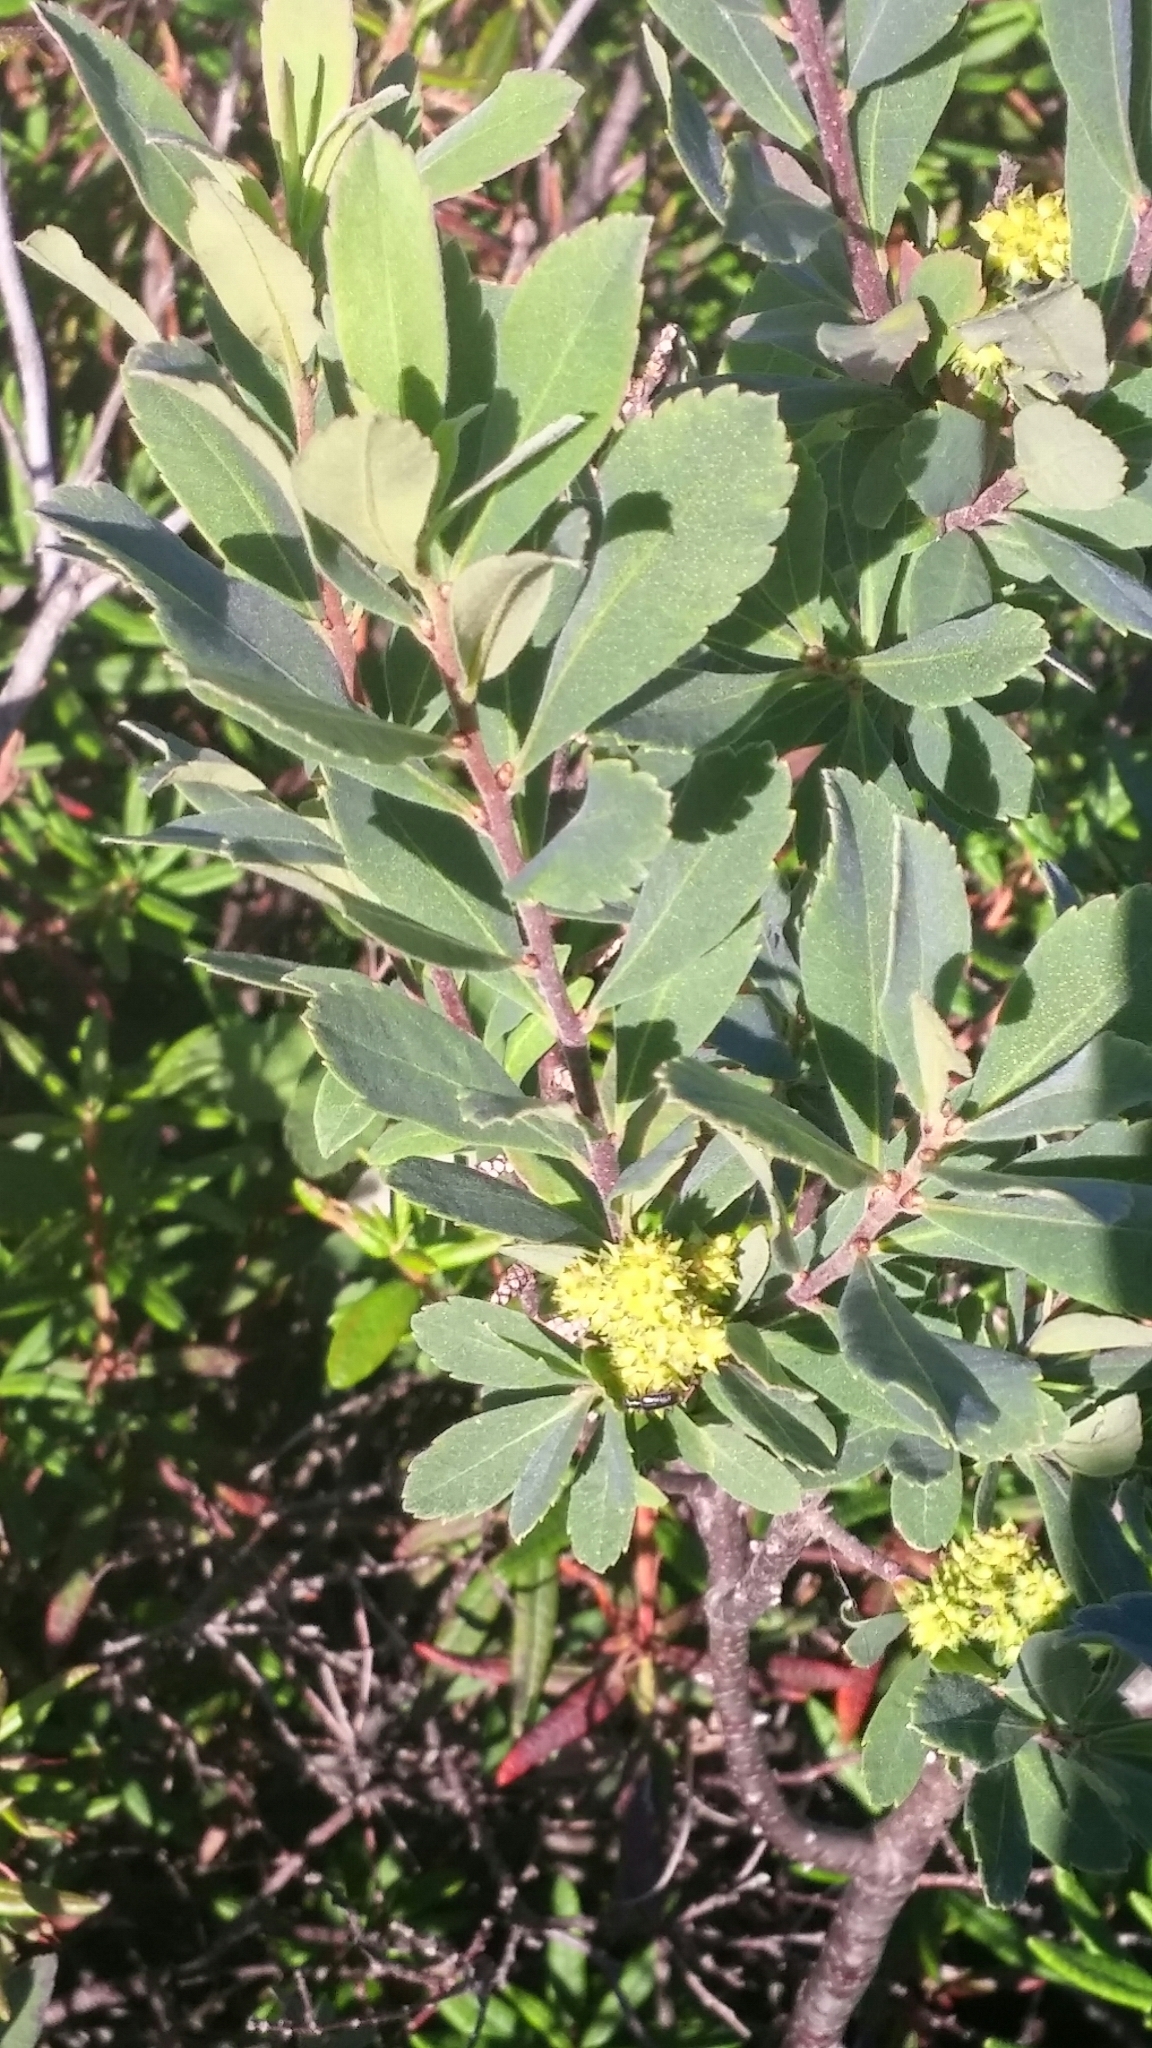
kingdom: Plantae
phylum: Tracheophyta
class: Magnoliopsida
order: Fagales
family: Myricaceae
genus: Myrica
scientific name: Myrica gale
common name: Sweet gale
